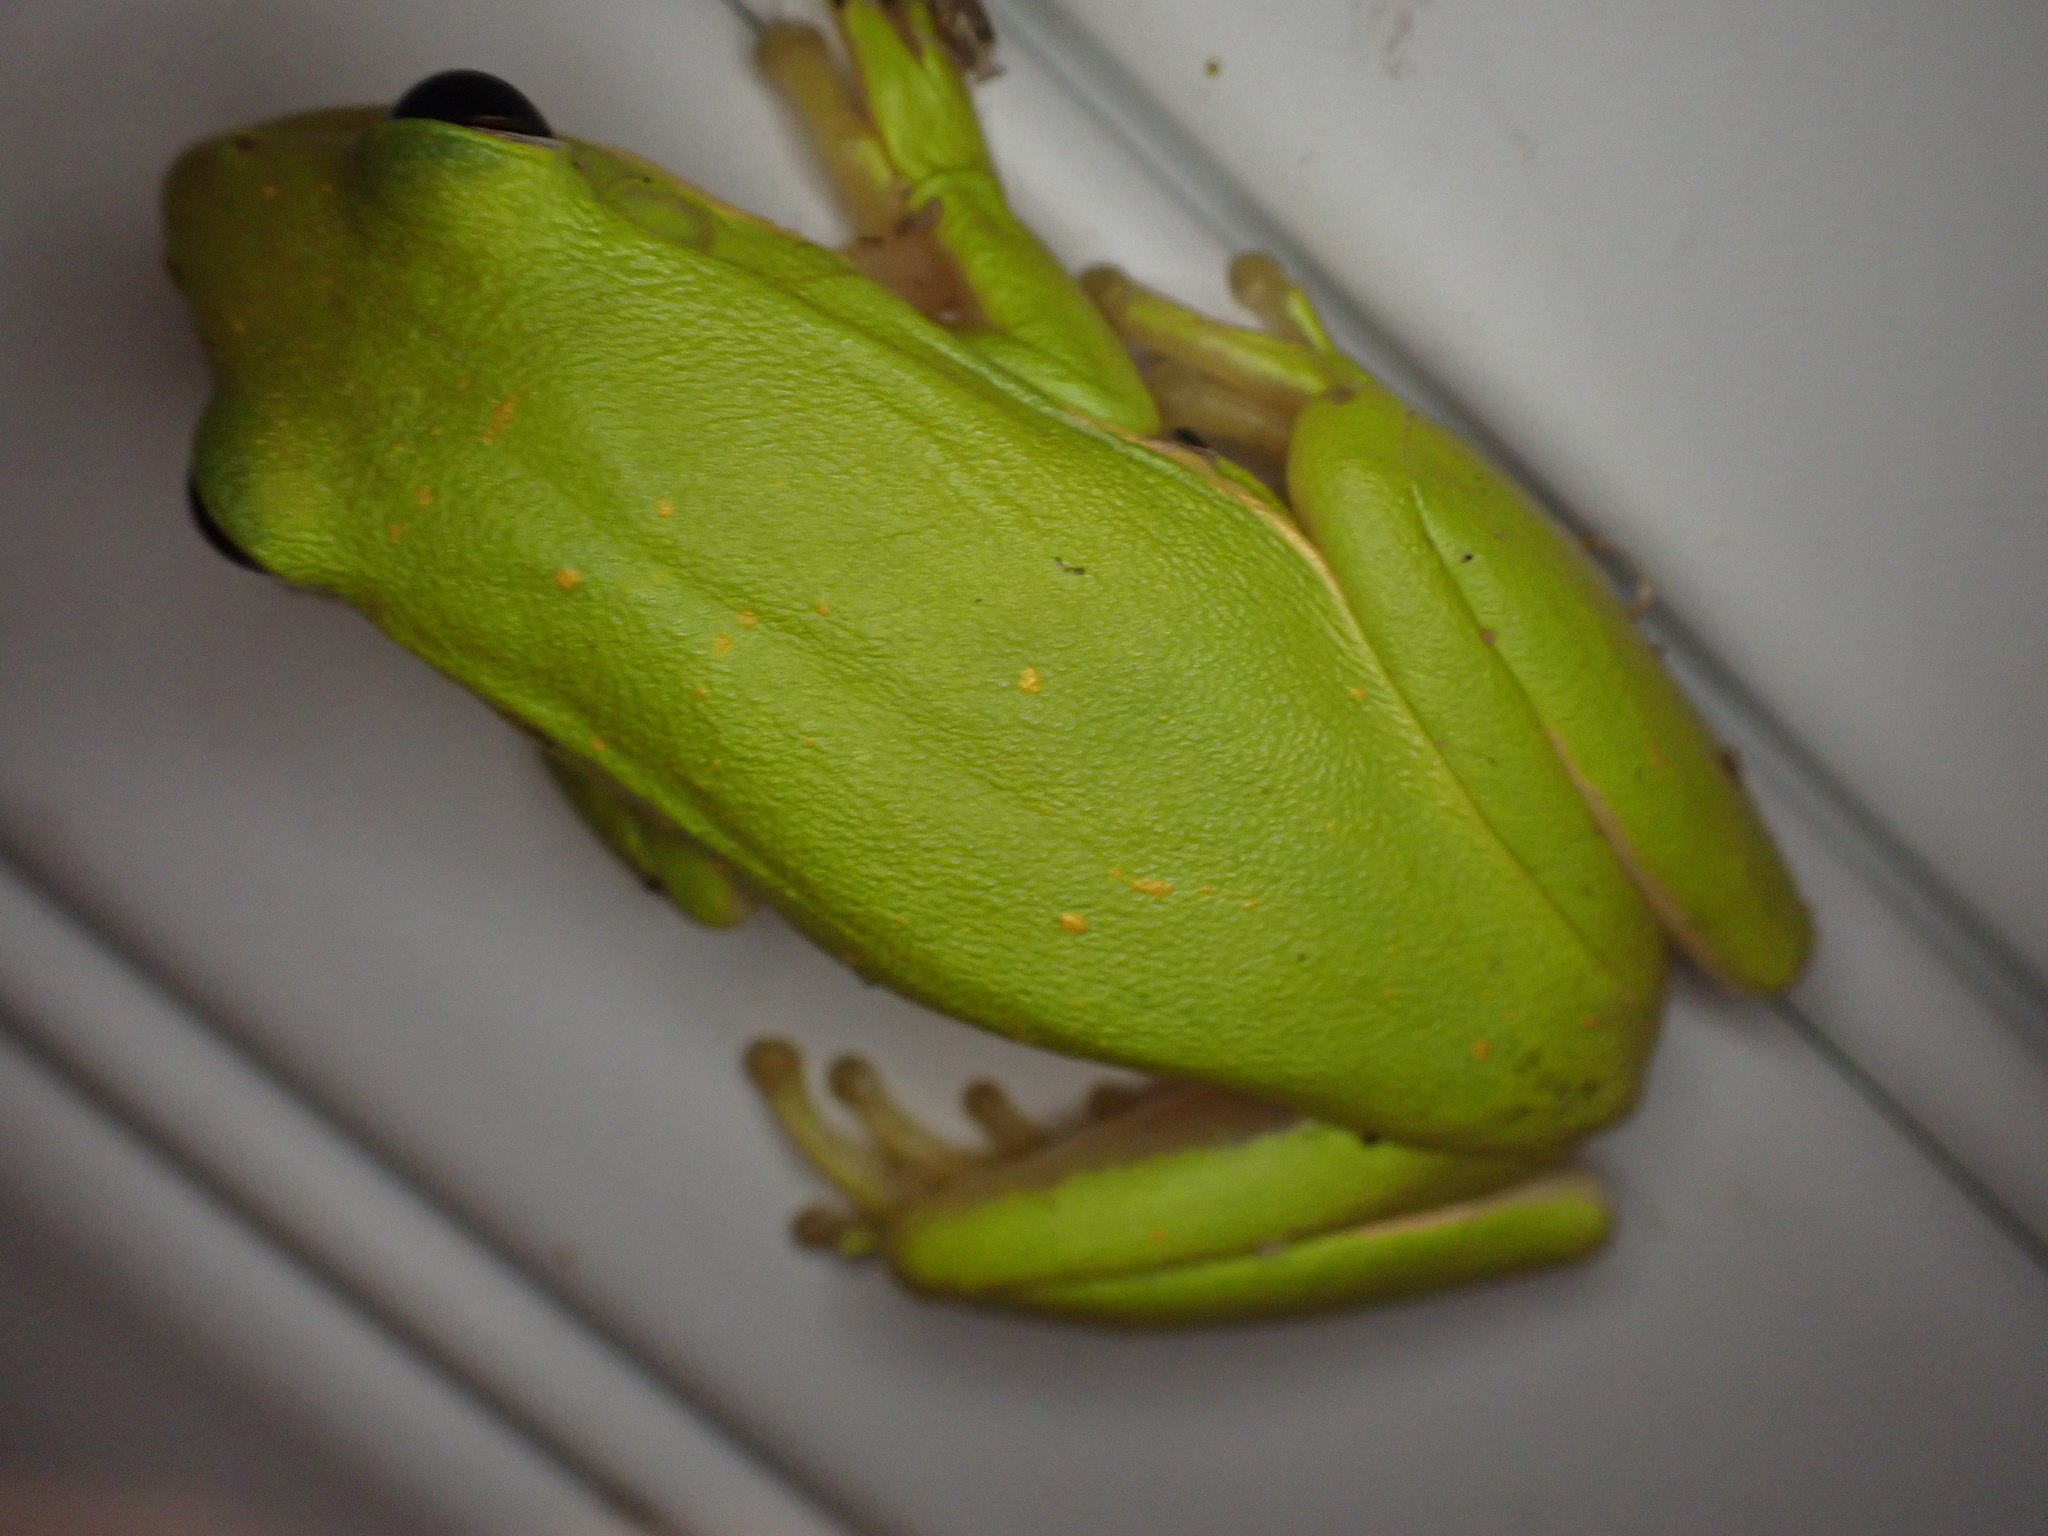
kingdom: Animalia
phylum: Chordata
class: Amphibia
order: Anura
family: Hylidae
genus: Dryophytes
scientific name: Dryophytes cinereus
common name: Green treefrog
